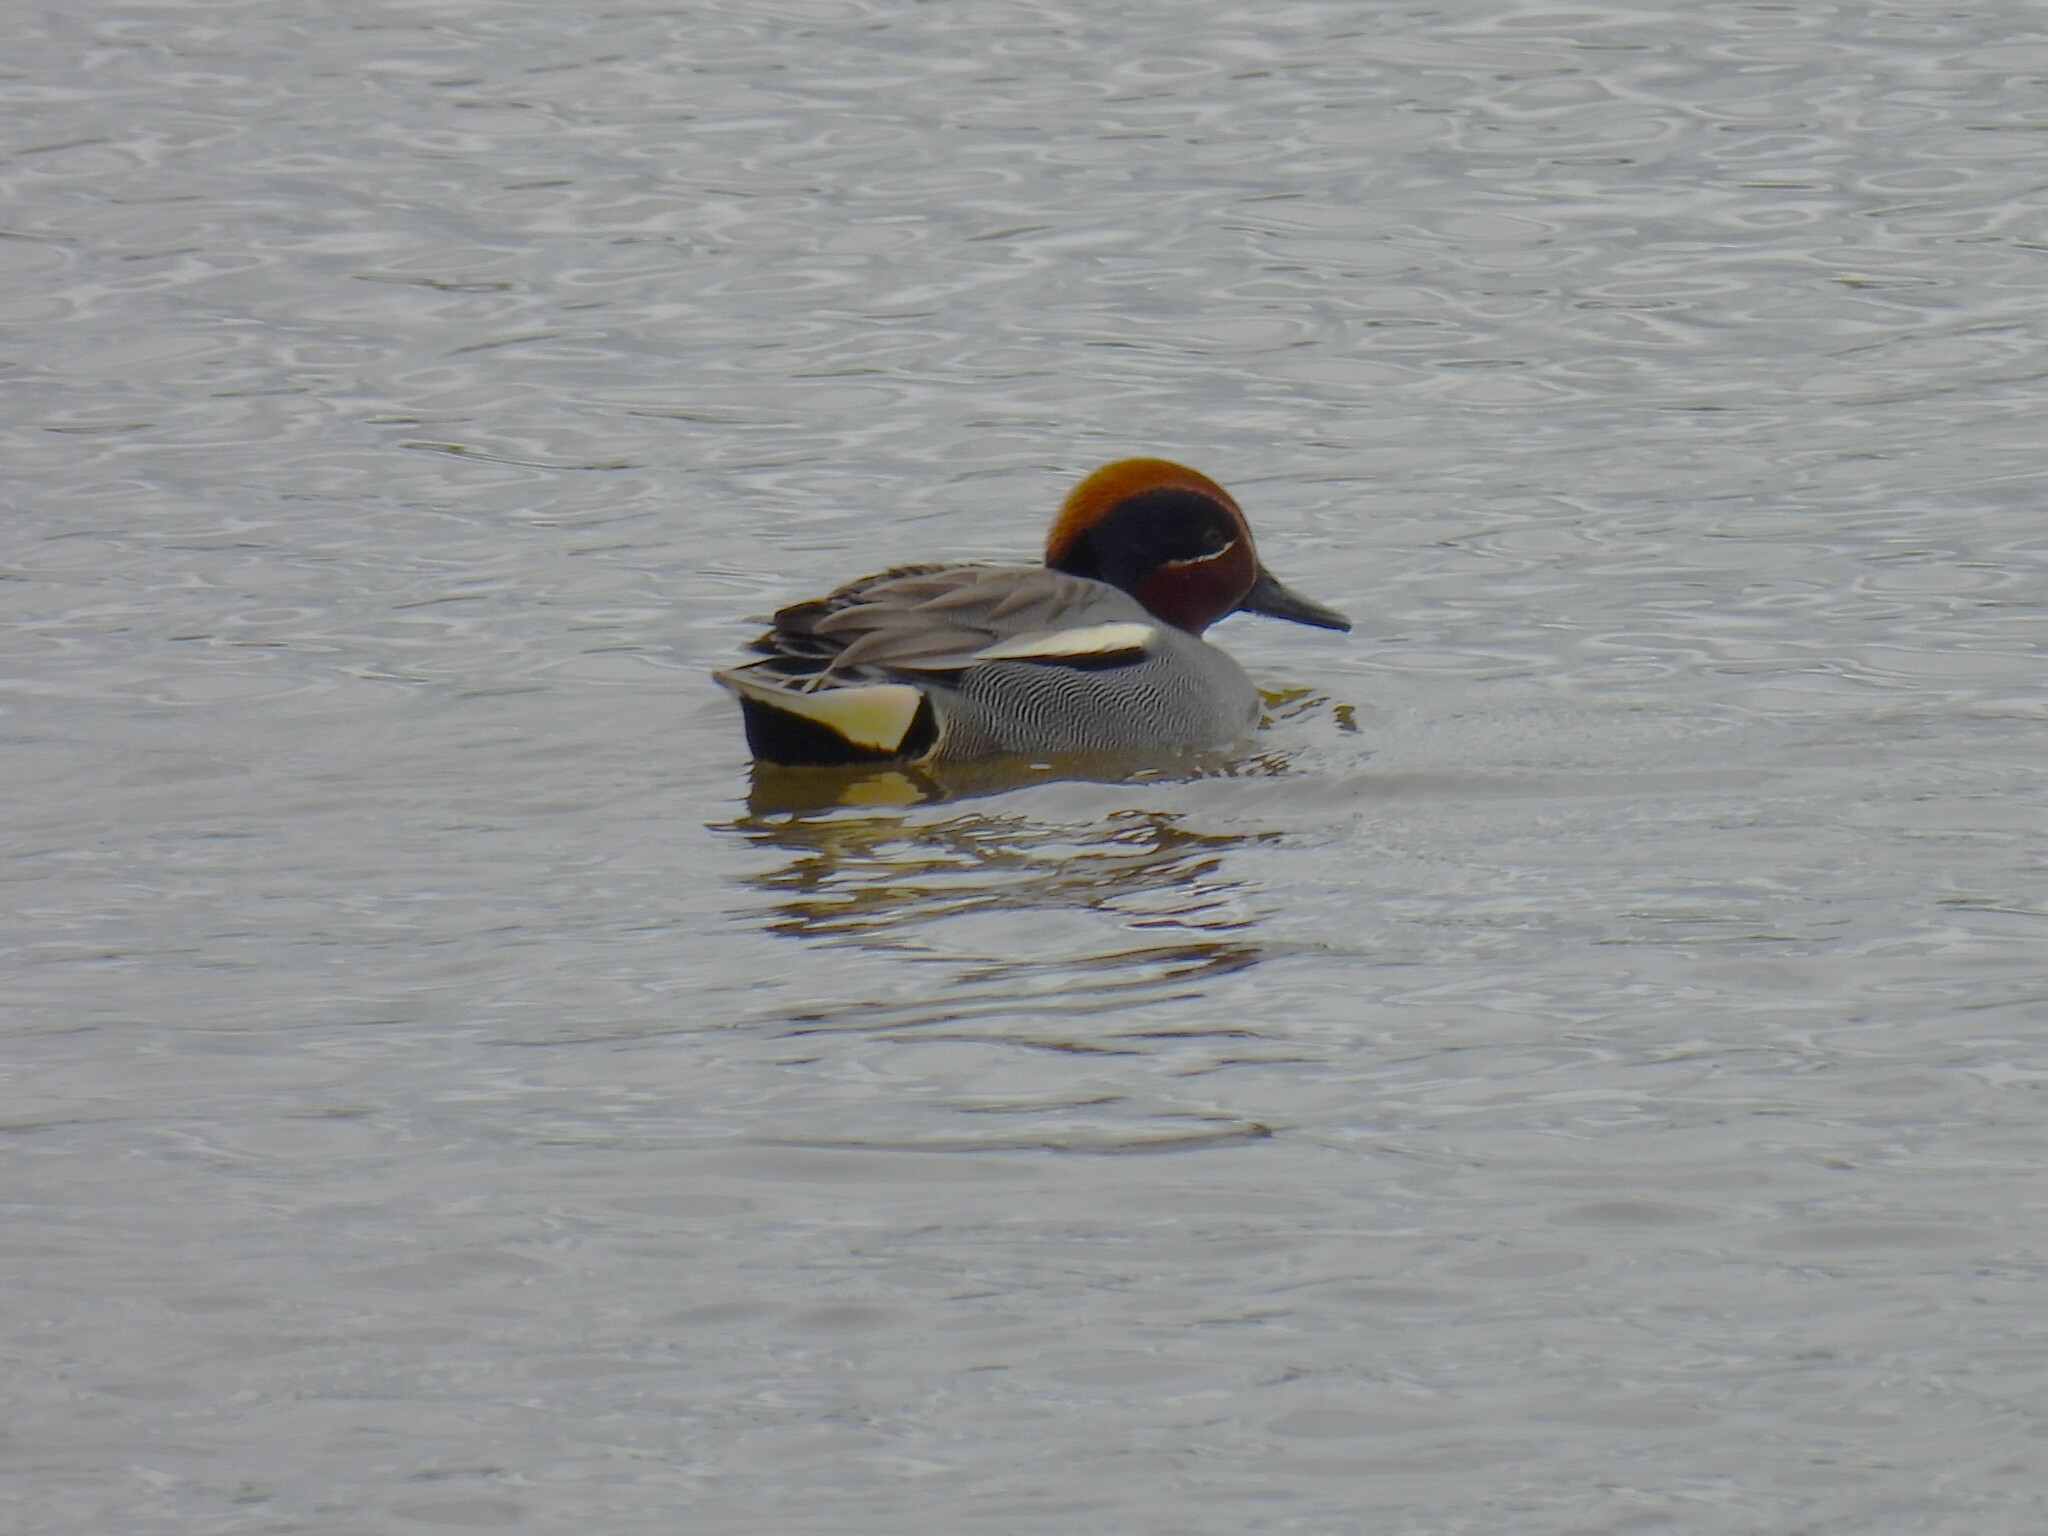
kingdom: Animalia
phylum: Chordata
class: Aves
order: Anseriformes
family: Anatidae
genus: Anas
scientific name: Anas crecca
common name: Eurasian teal
